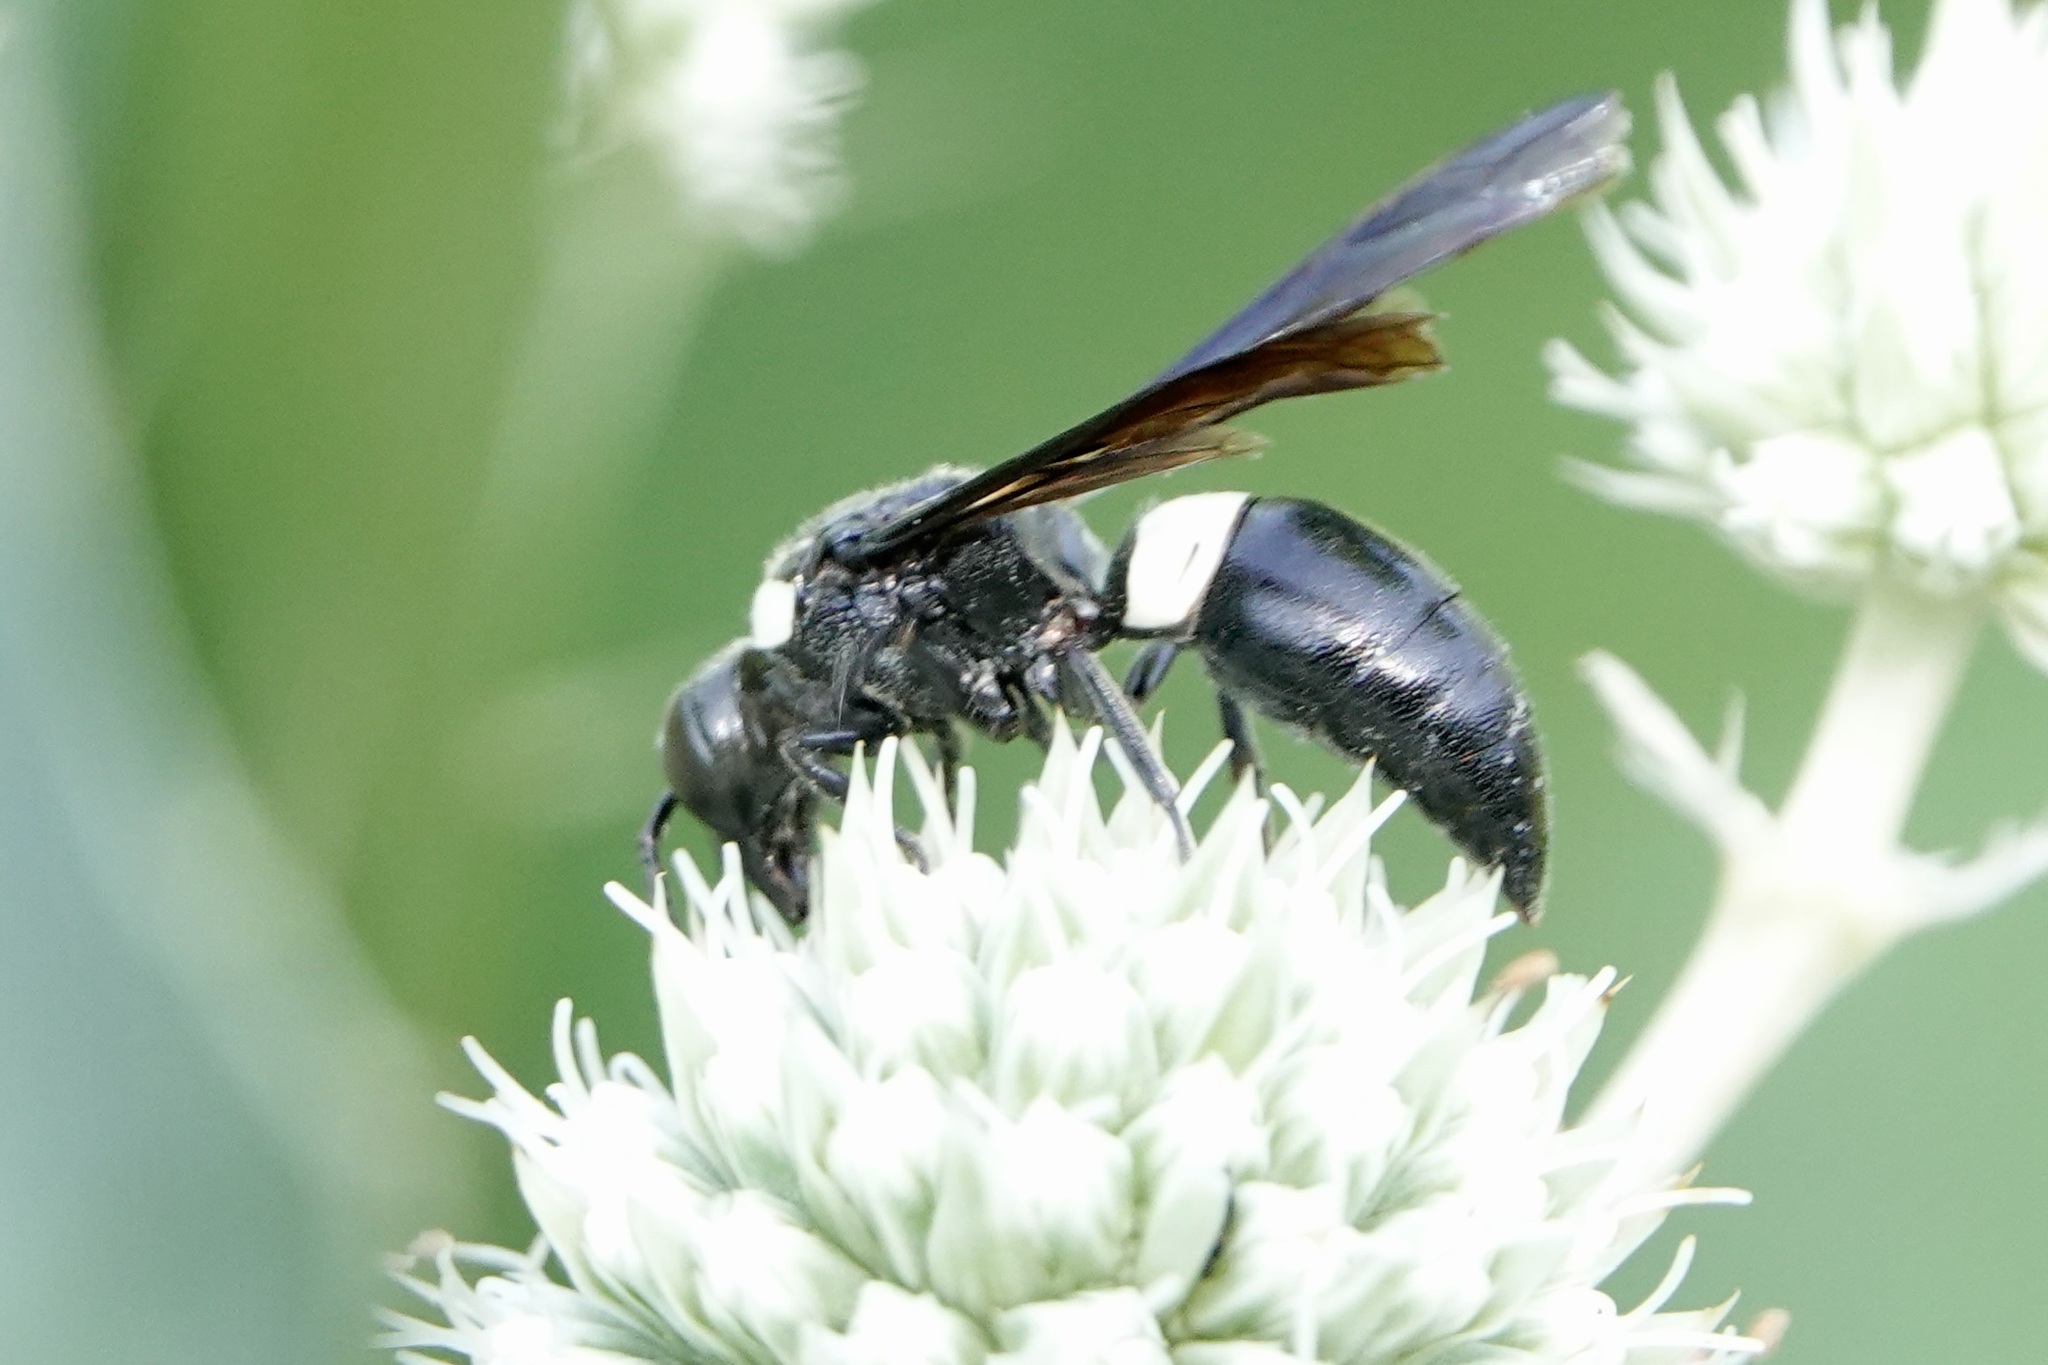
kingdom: Animalia
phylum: Arthropoda
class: Insecta
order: Hymenoptera
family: Eumenidae
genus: Monobia
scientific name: Monobia quadridens
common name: Four-toothed mason wasp
